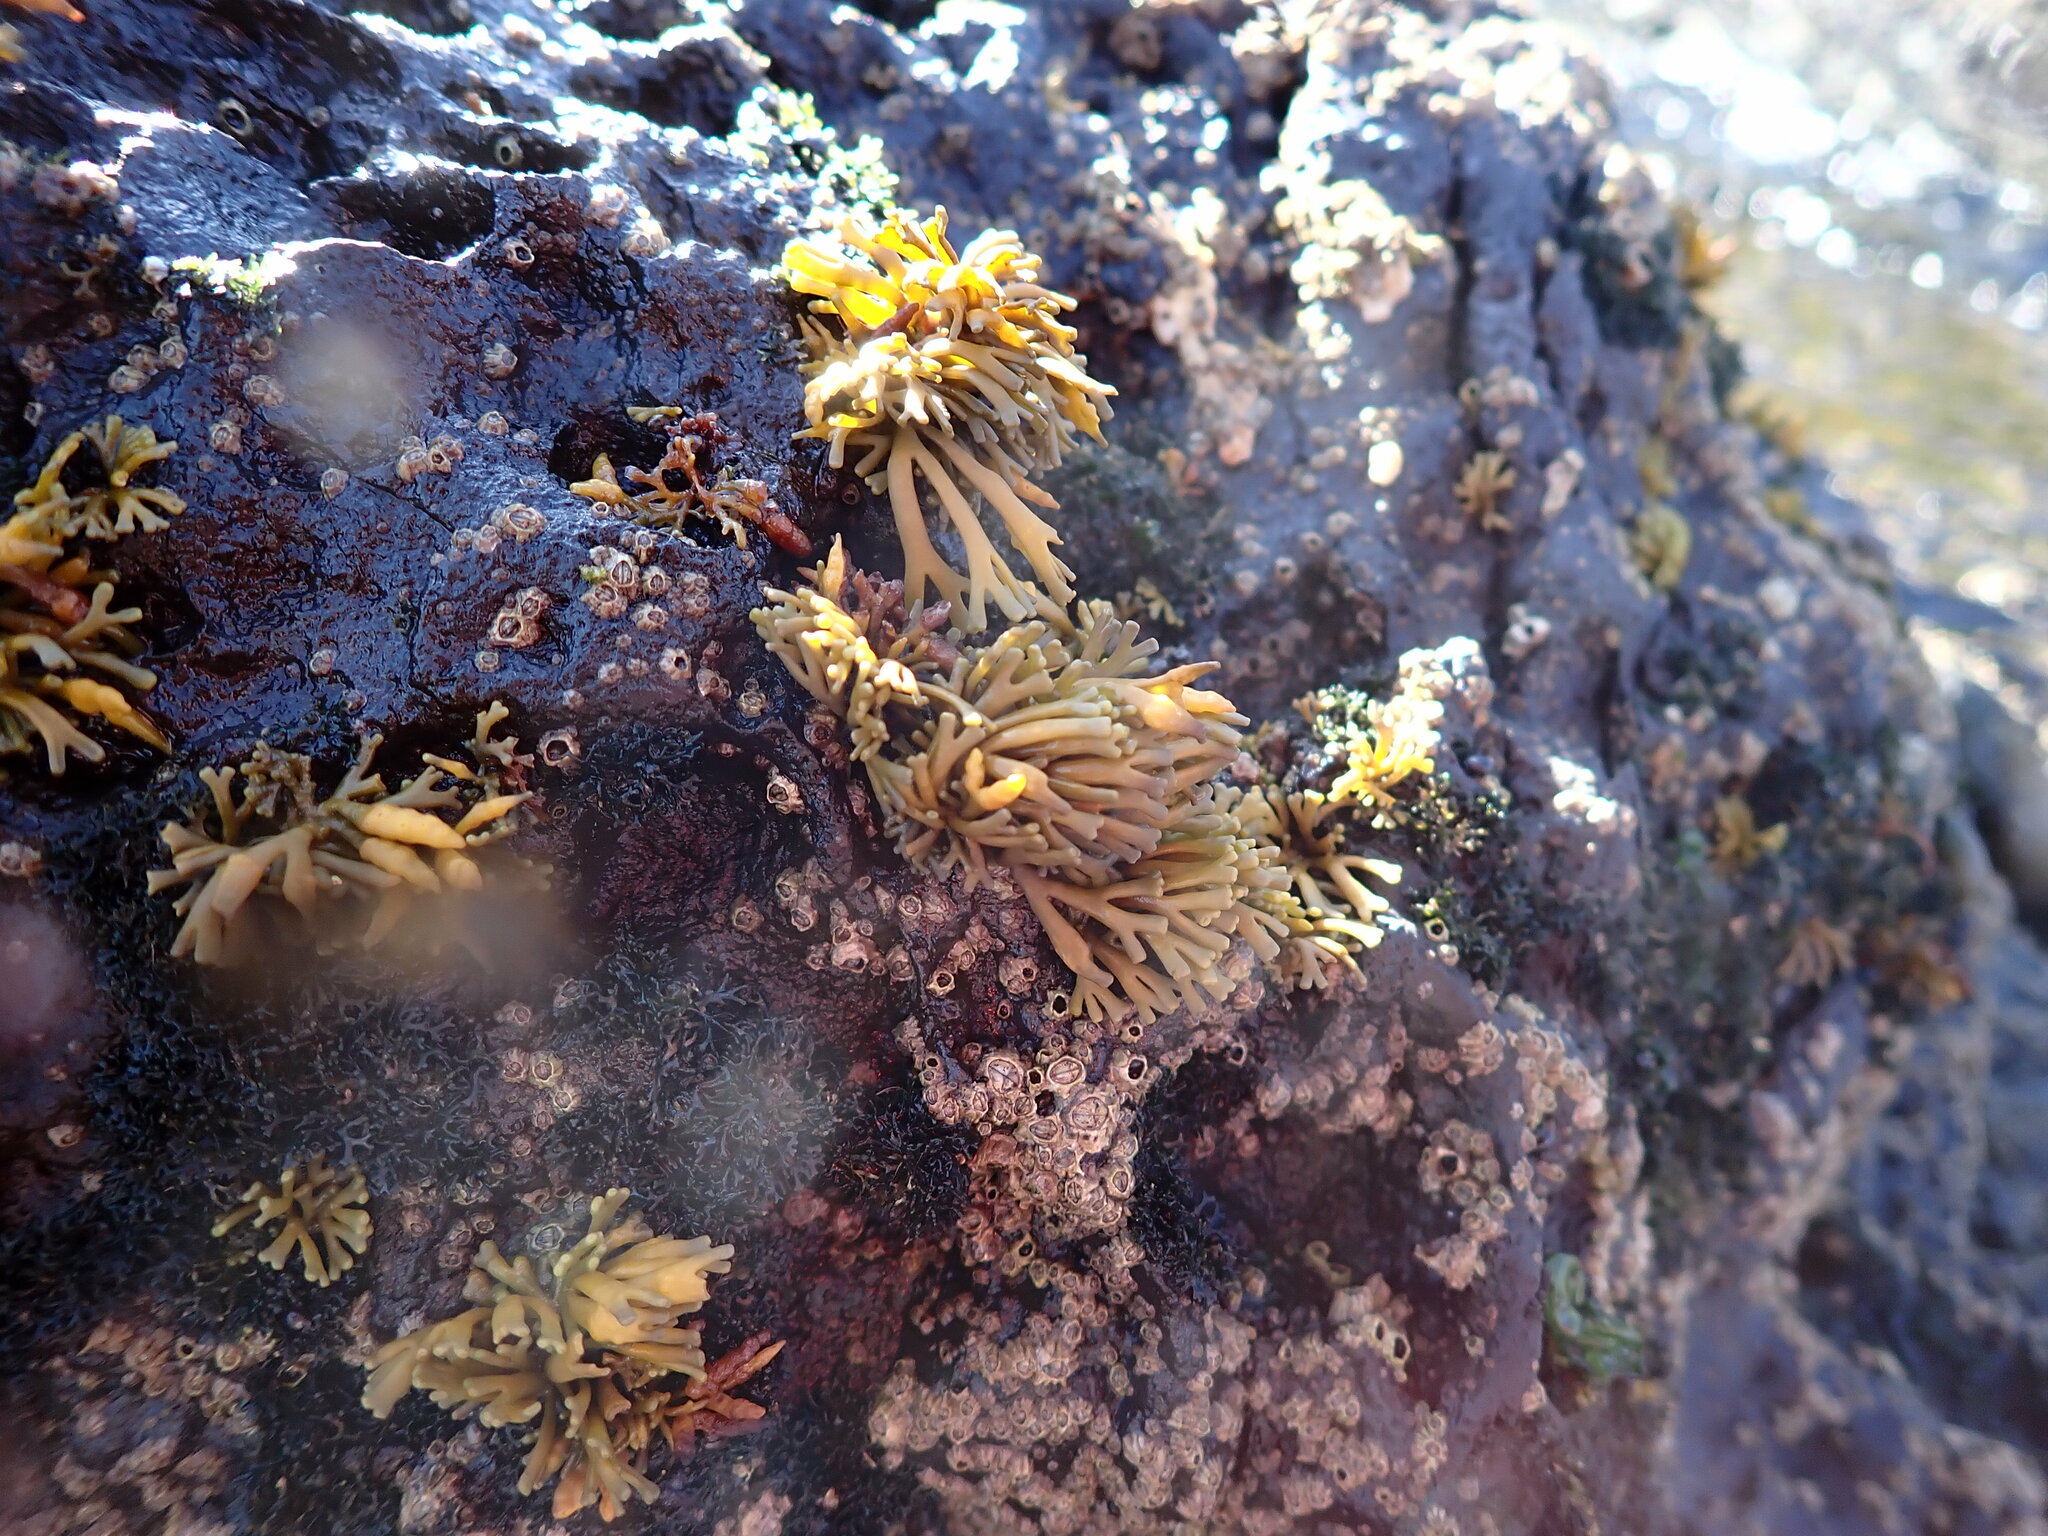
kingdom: Chromista
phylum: Ochrophyta
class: Phaeophyceae
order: Fucales
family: Fucaceae
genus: Pelvetia
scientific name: Pelvetia canaliculata
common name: Channelled wrack
